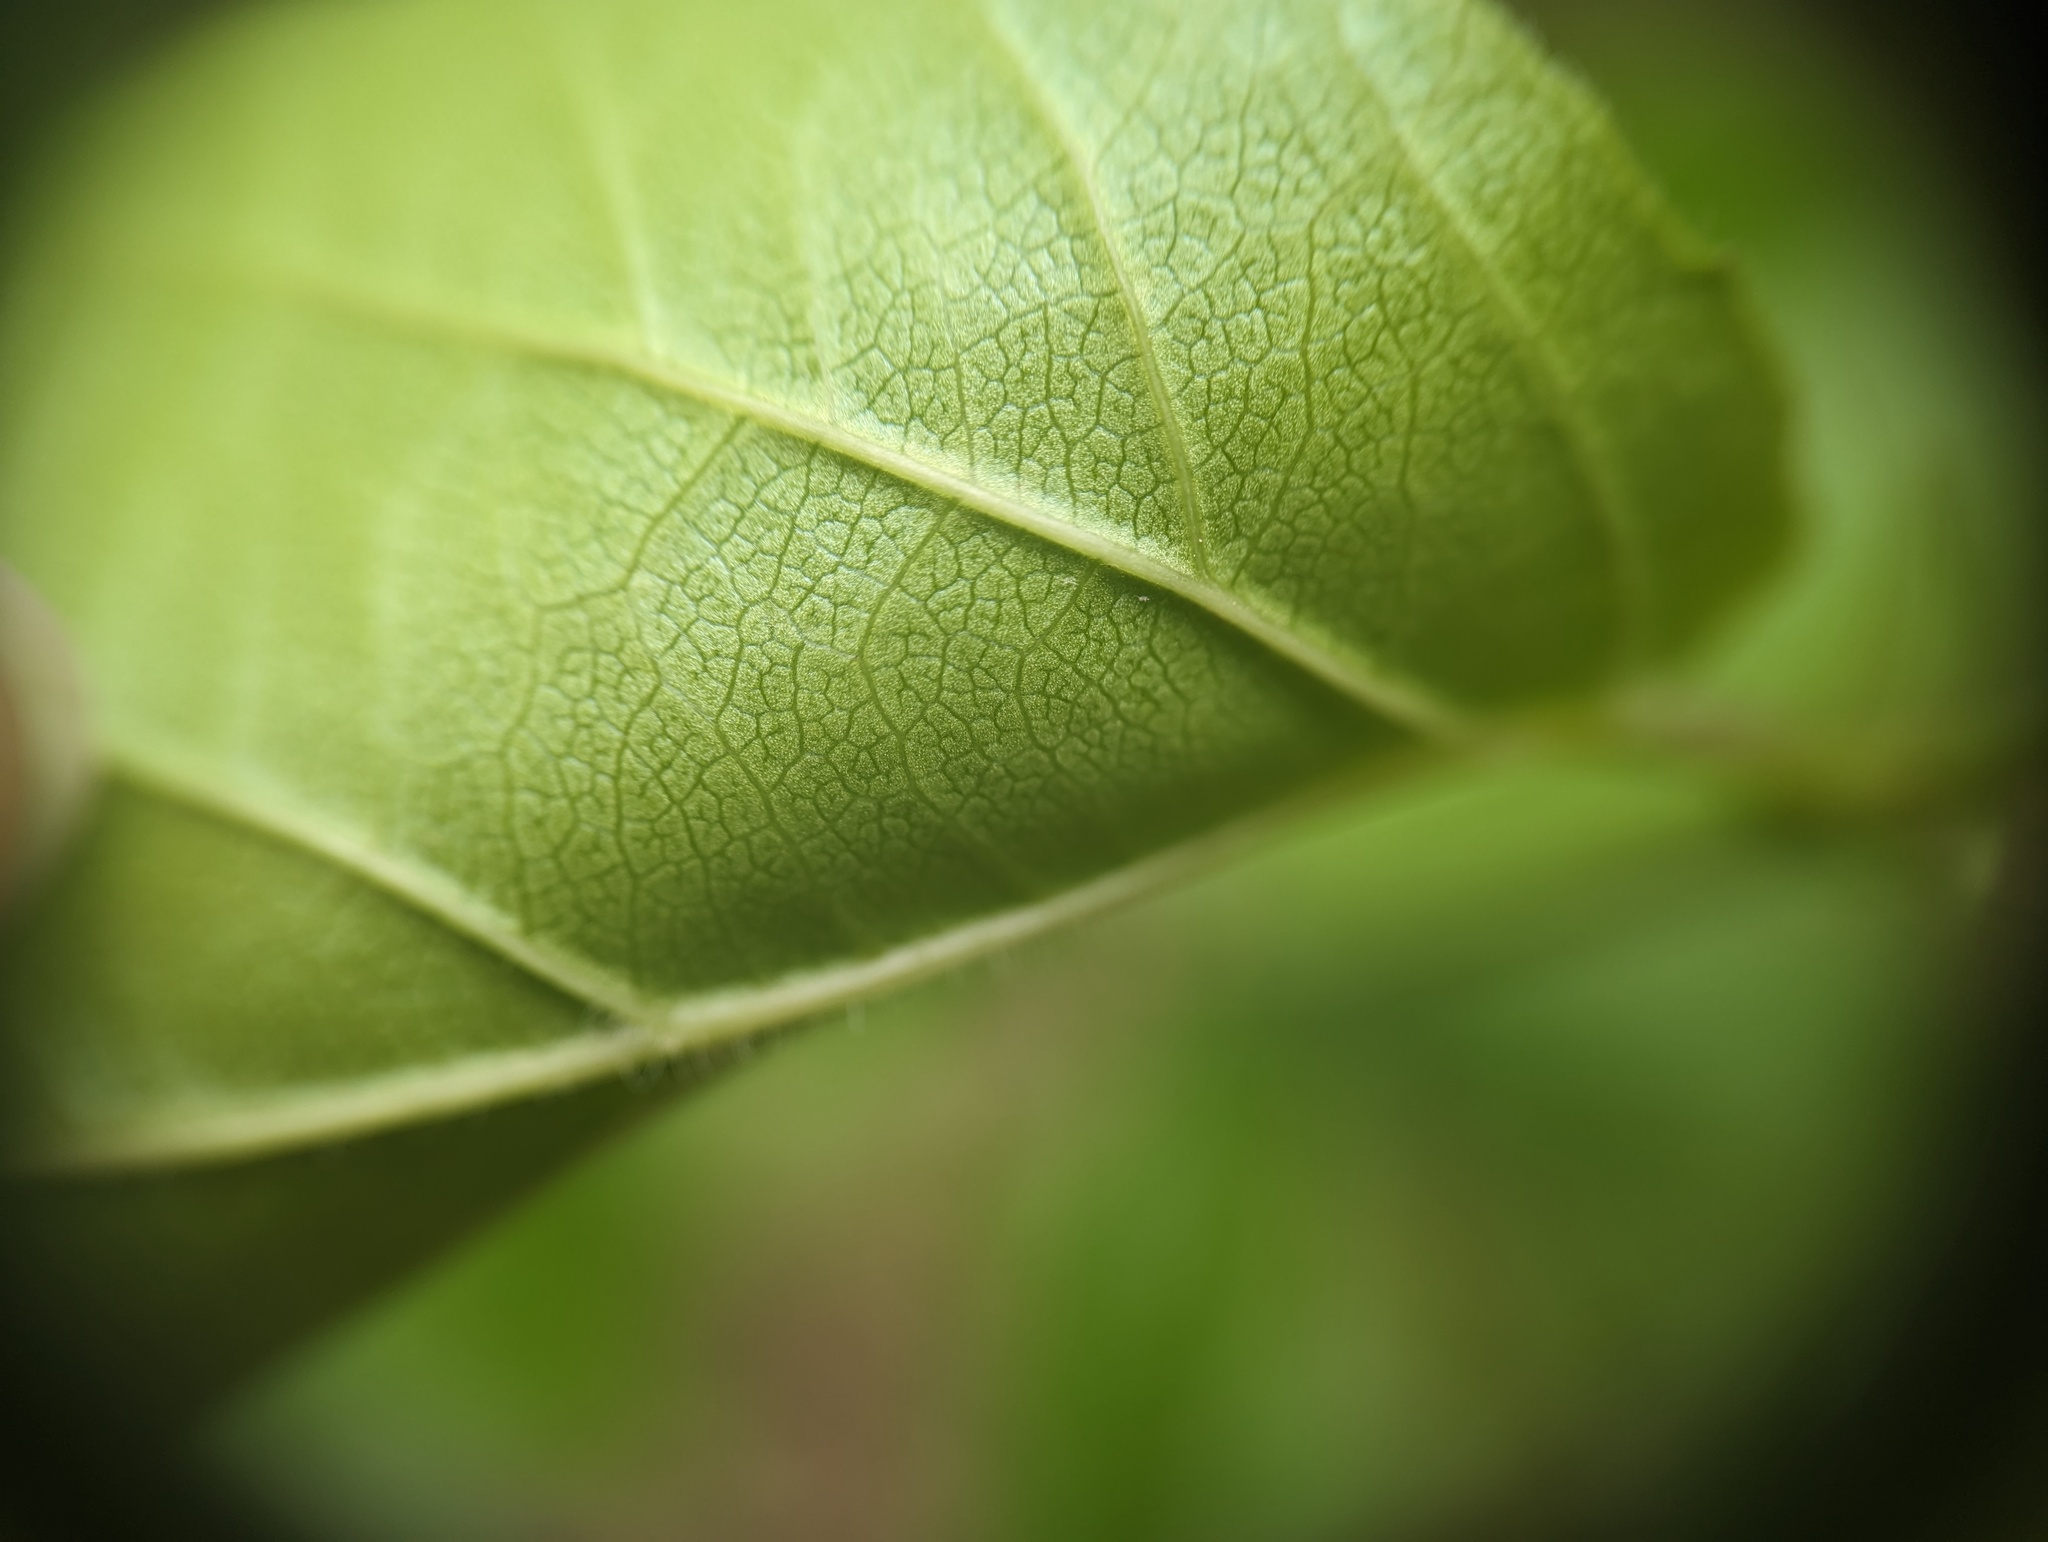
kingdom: Plantae
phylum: Tracheophyta
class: Magnoliopsida
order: Dipsacales
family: Viburnaceae
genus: Viburnum
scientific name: Viburnum rafinesqueanum
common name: Downy arrow-wood
